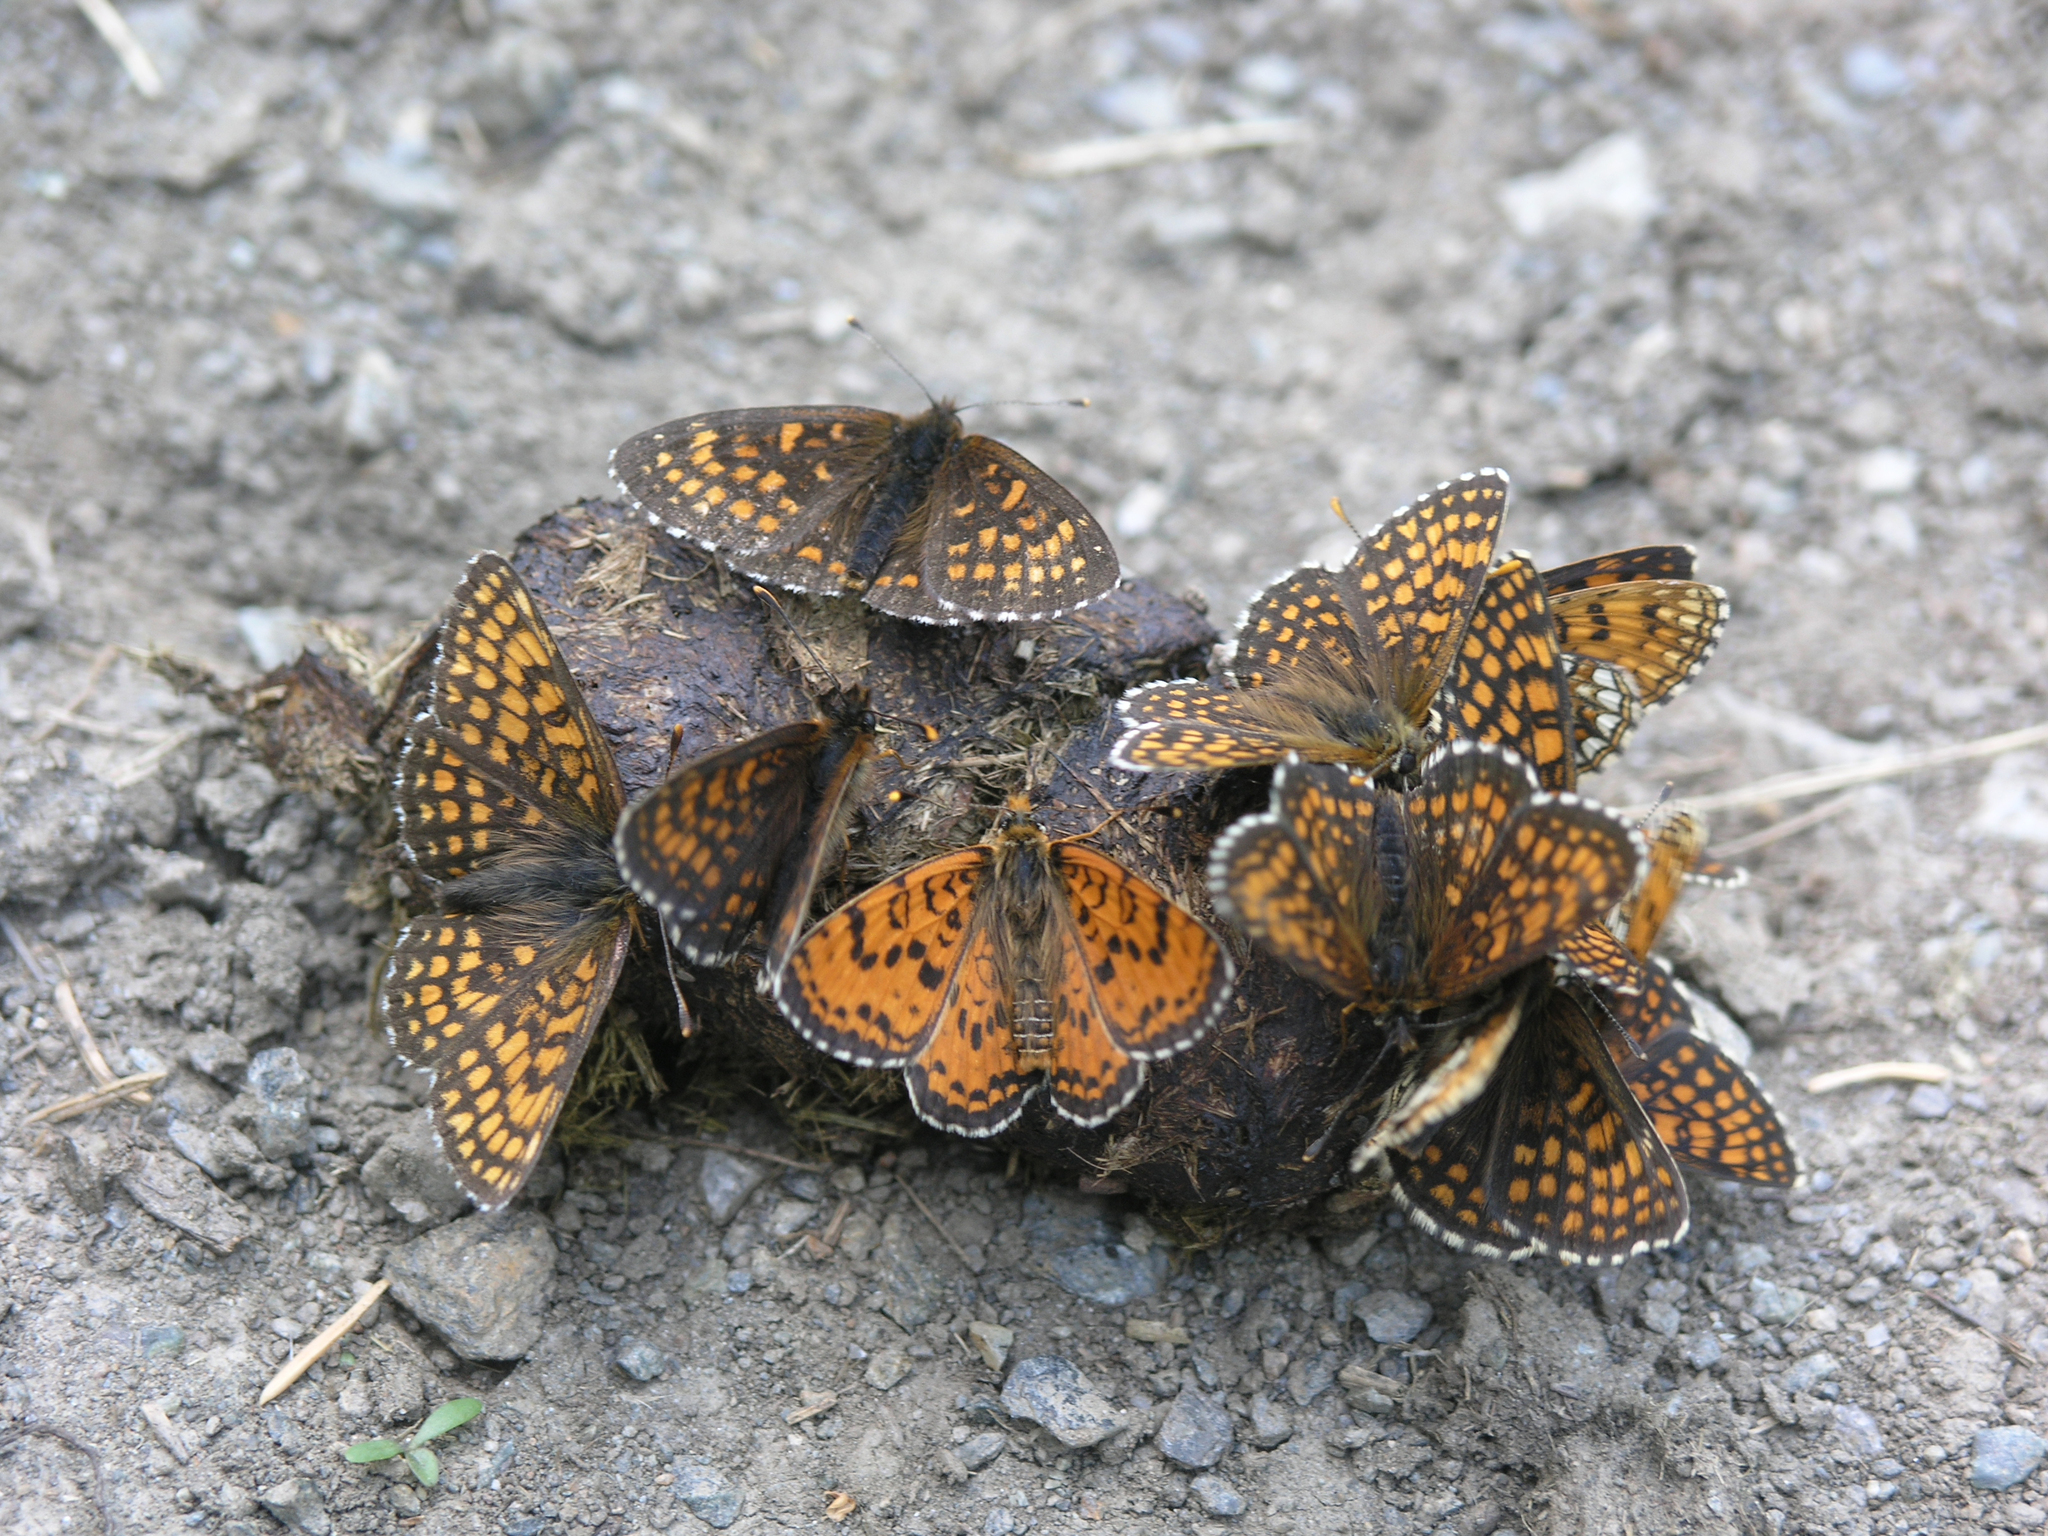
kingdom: Animalia
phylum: Arthropoda
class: Insecta
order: Lepidoptera
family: Nymphalidae
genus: Mellicta
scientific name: Mellicta menetriesi
